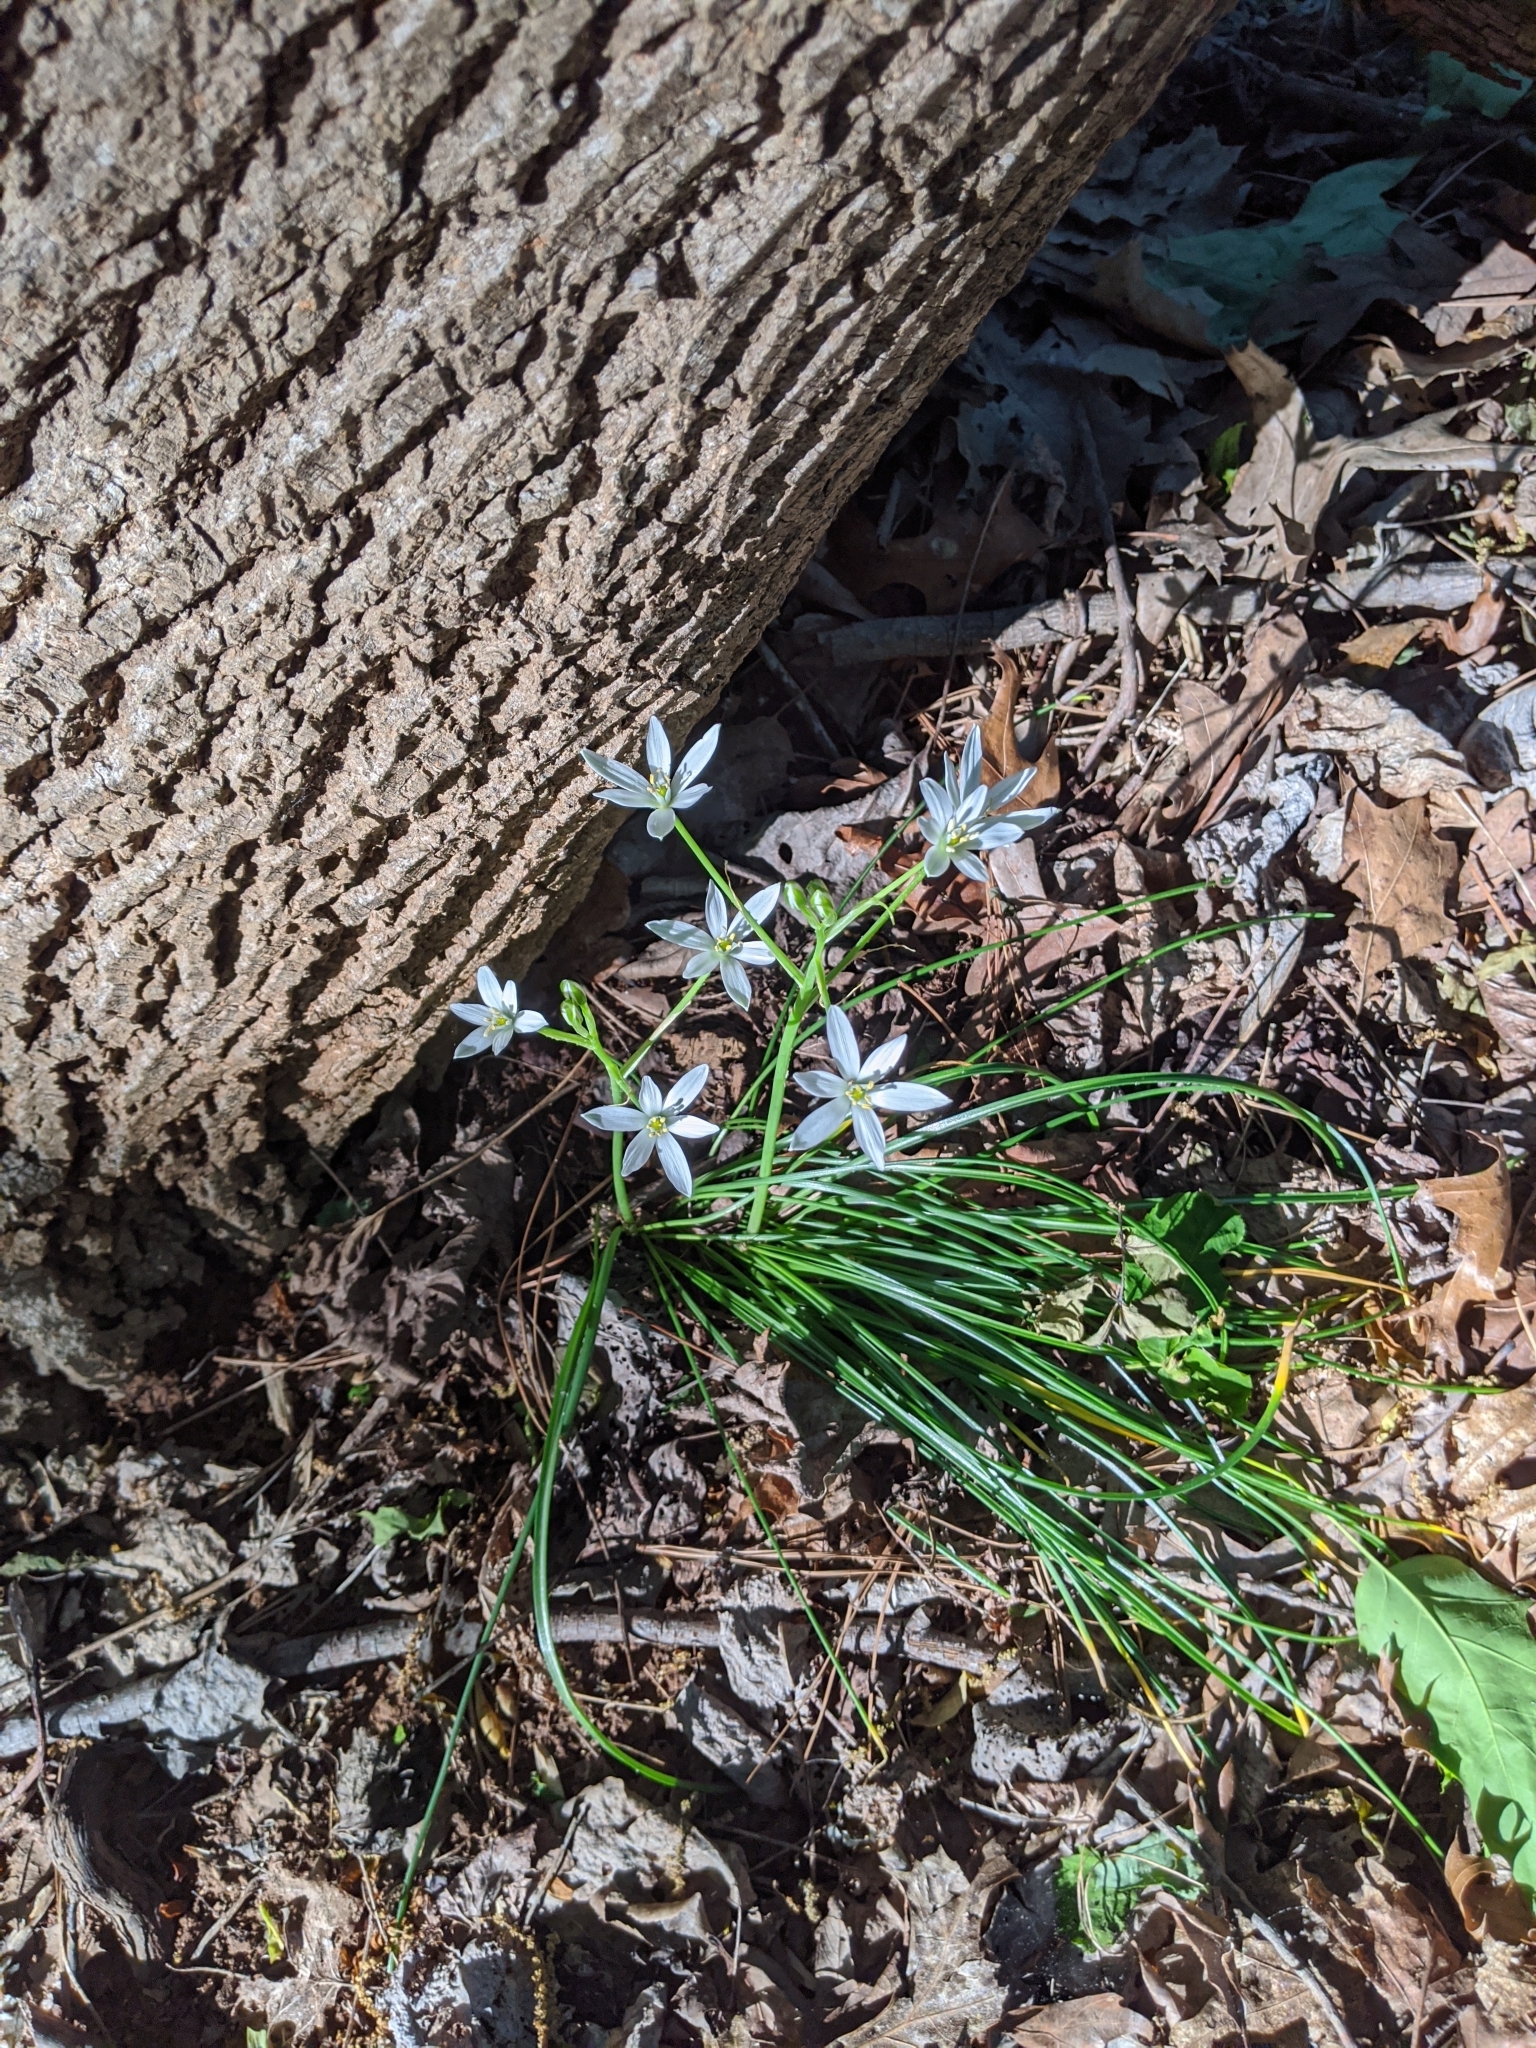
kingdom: Plantae
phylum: Tracheophyta
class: Liliopsida
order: Asparagales
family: Asparagaceae
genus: Ornithogalum
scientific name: Ornithogalum umbellatum
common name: Garden star-of-bethlehem
